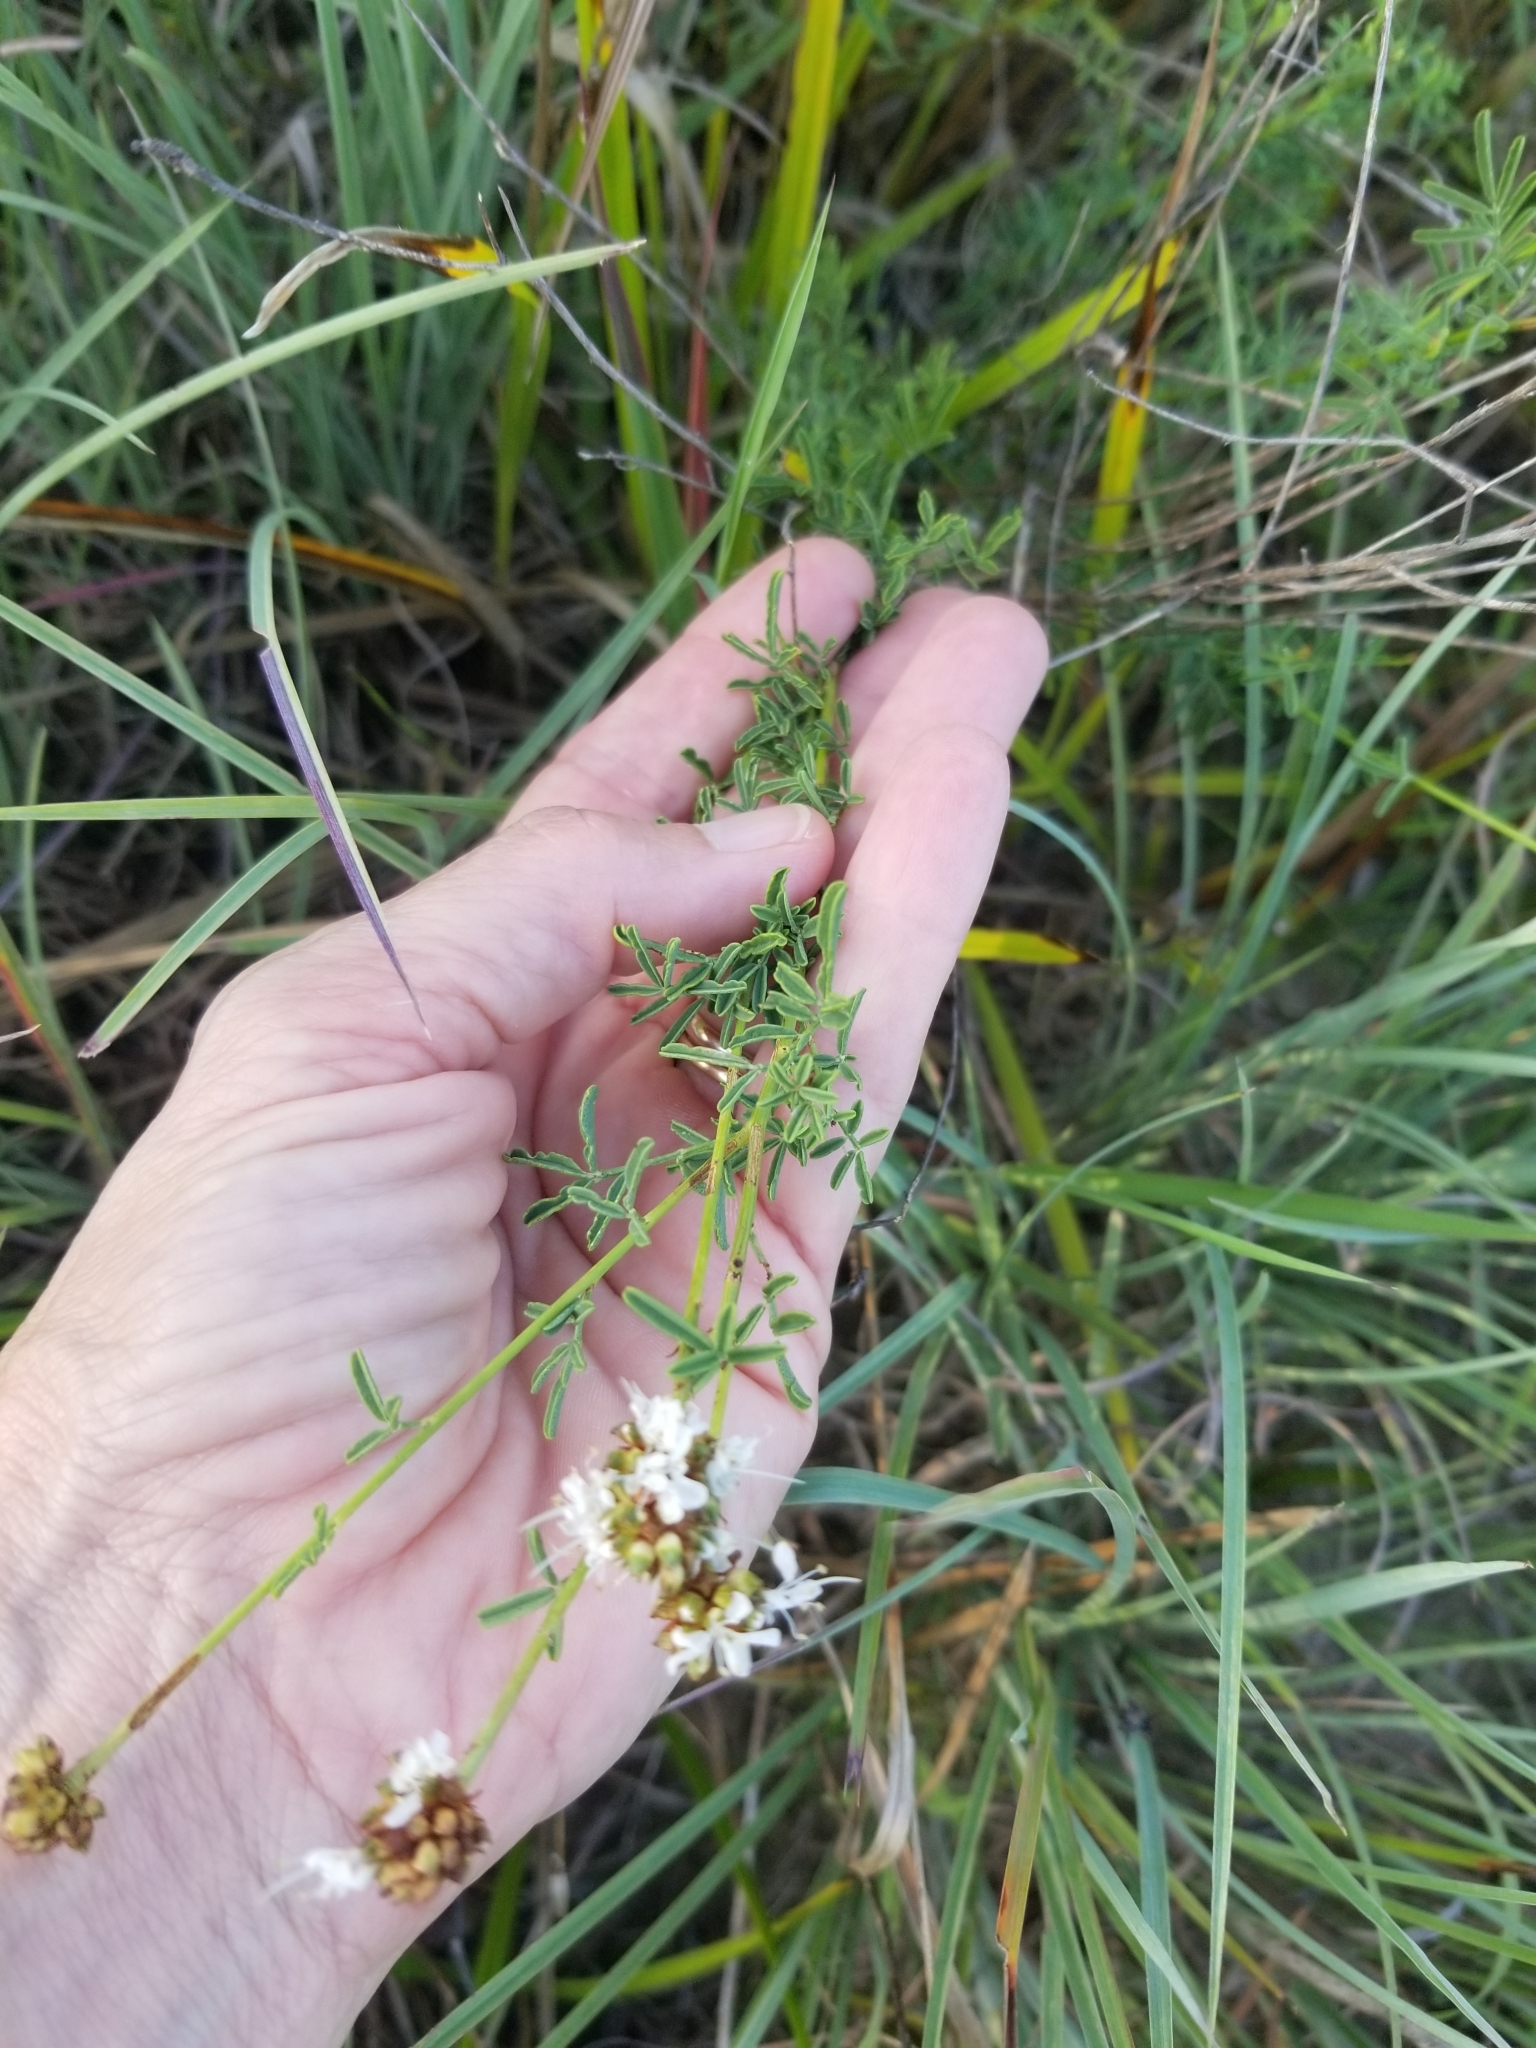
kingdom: Plantae
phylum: Tracheophyta
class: Magnoliopsida
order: Fabales
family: Fabaceae
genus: Dalea
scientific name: Dalea multiflora
